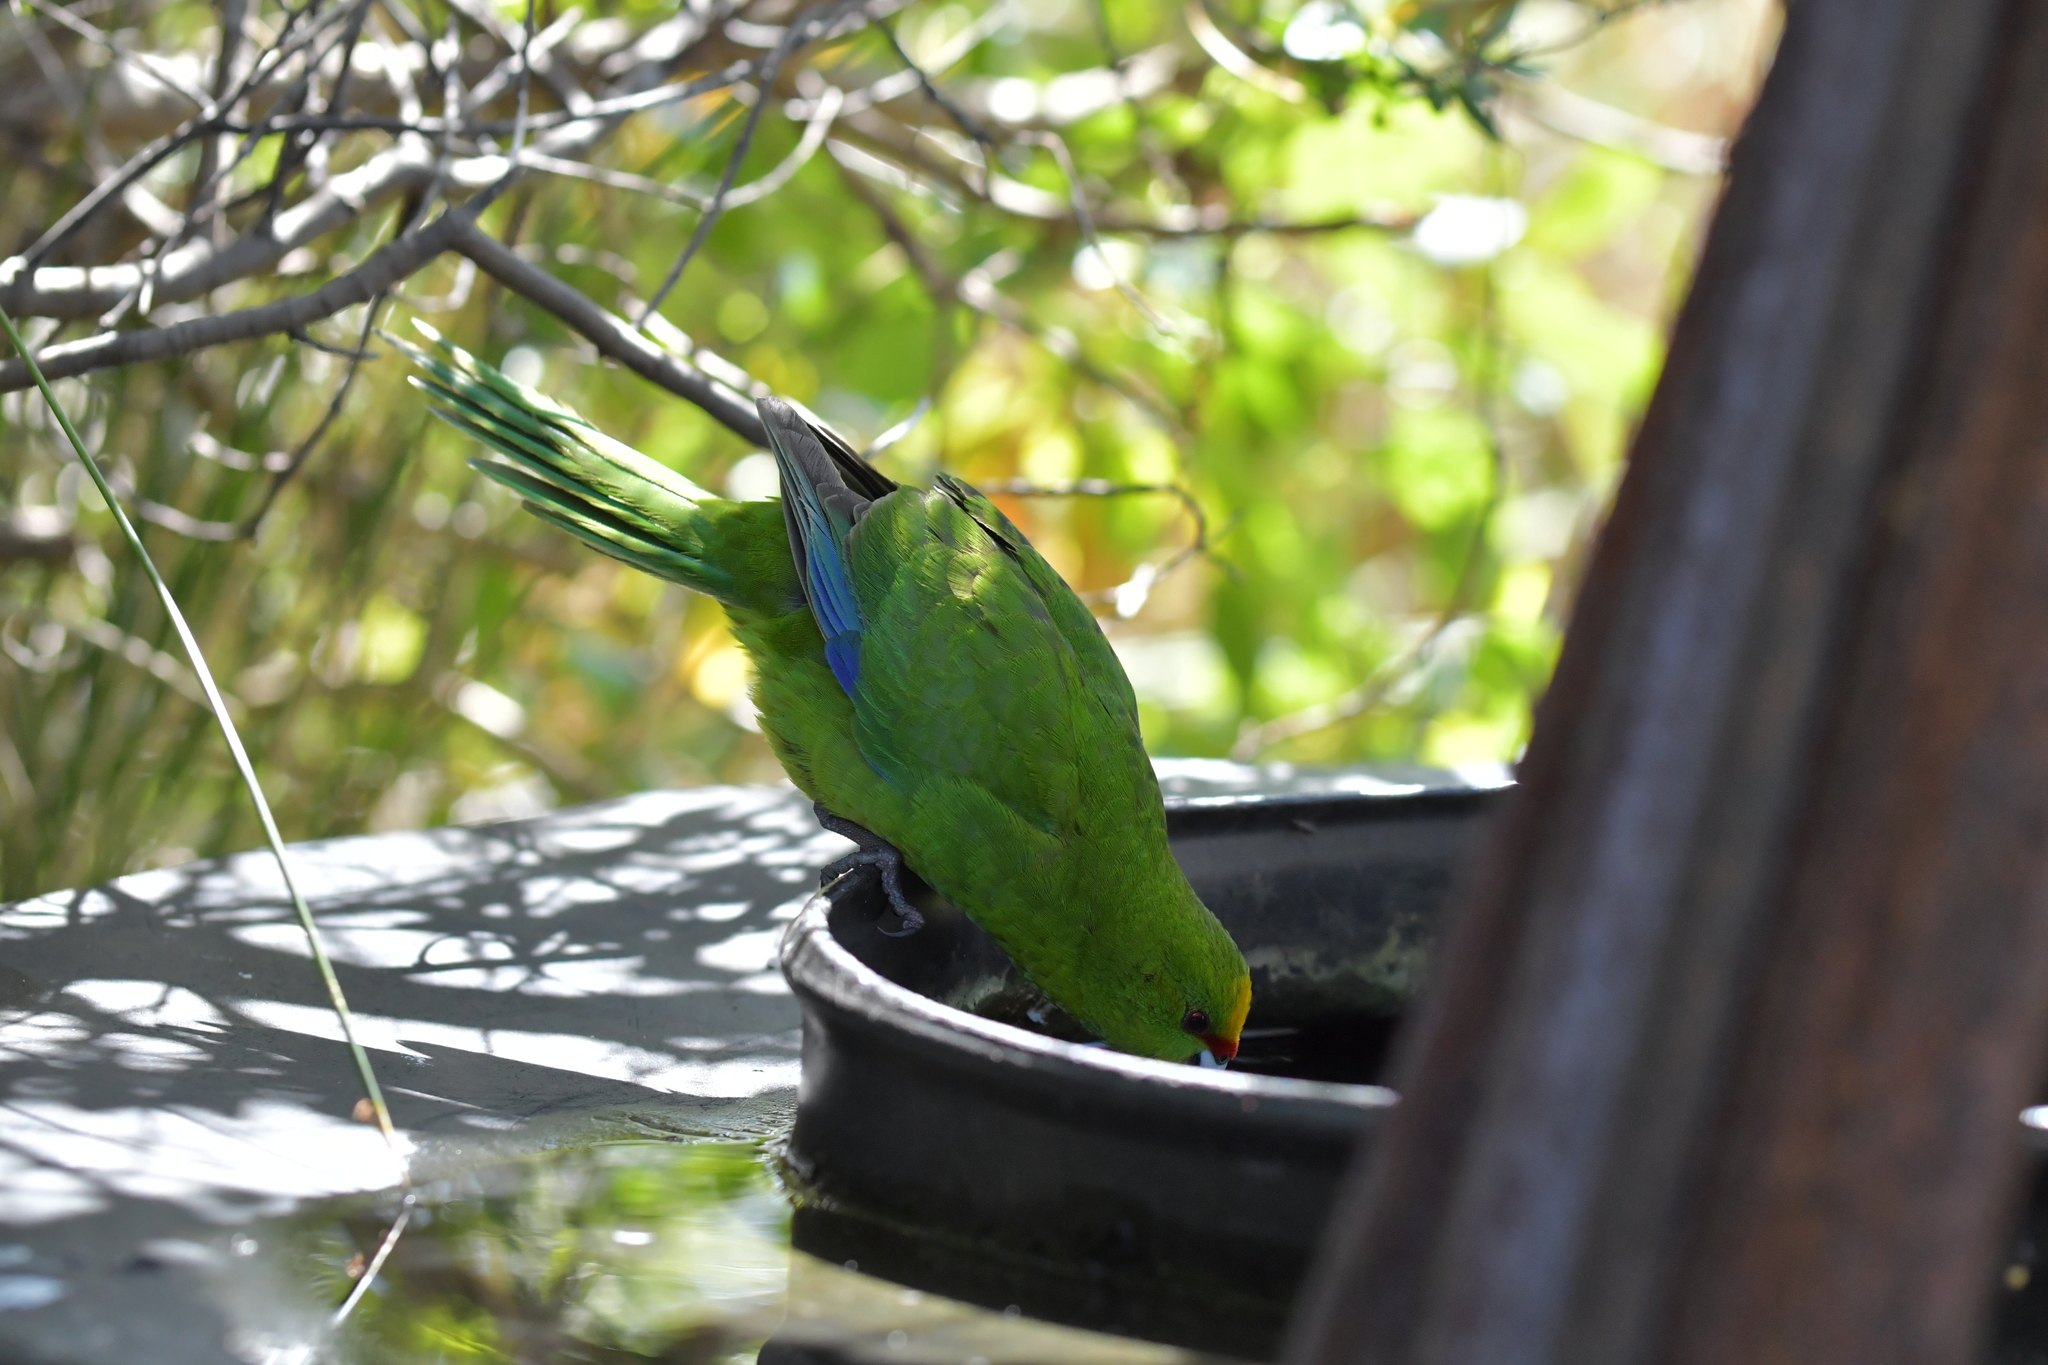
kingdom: Animalia
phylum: Chordata
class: Aves
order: Psittaciformes
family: Psittacidae
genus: Cyanoramphus
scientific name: Cyanoramphus auriceps
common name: Yellow-crowned parakeet
